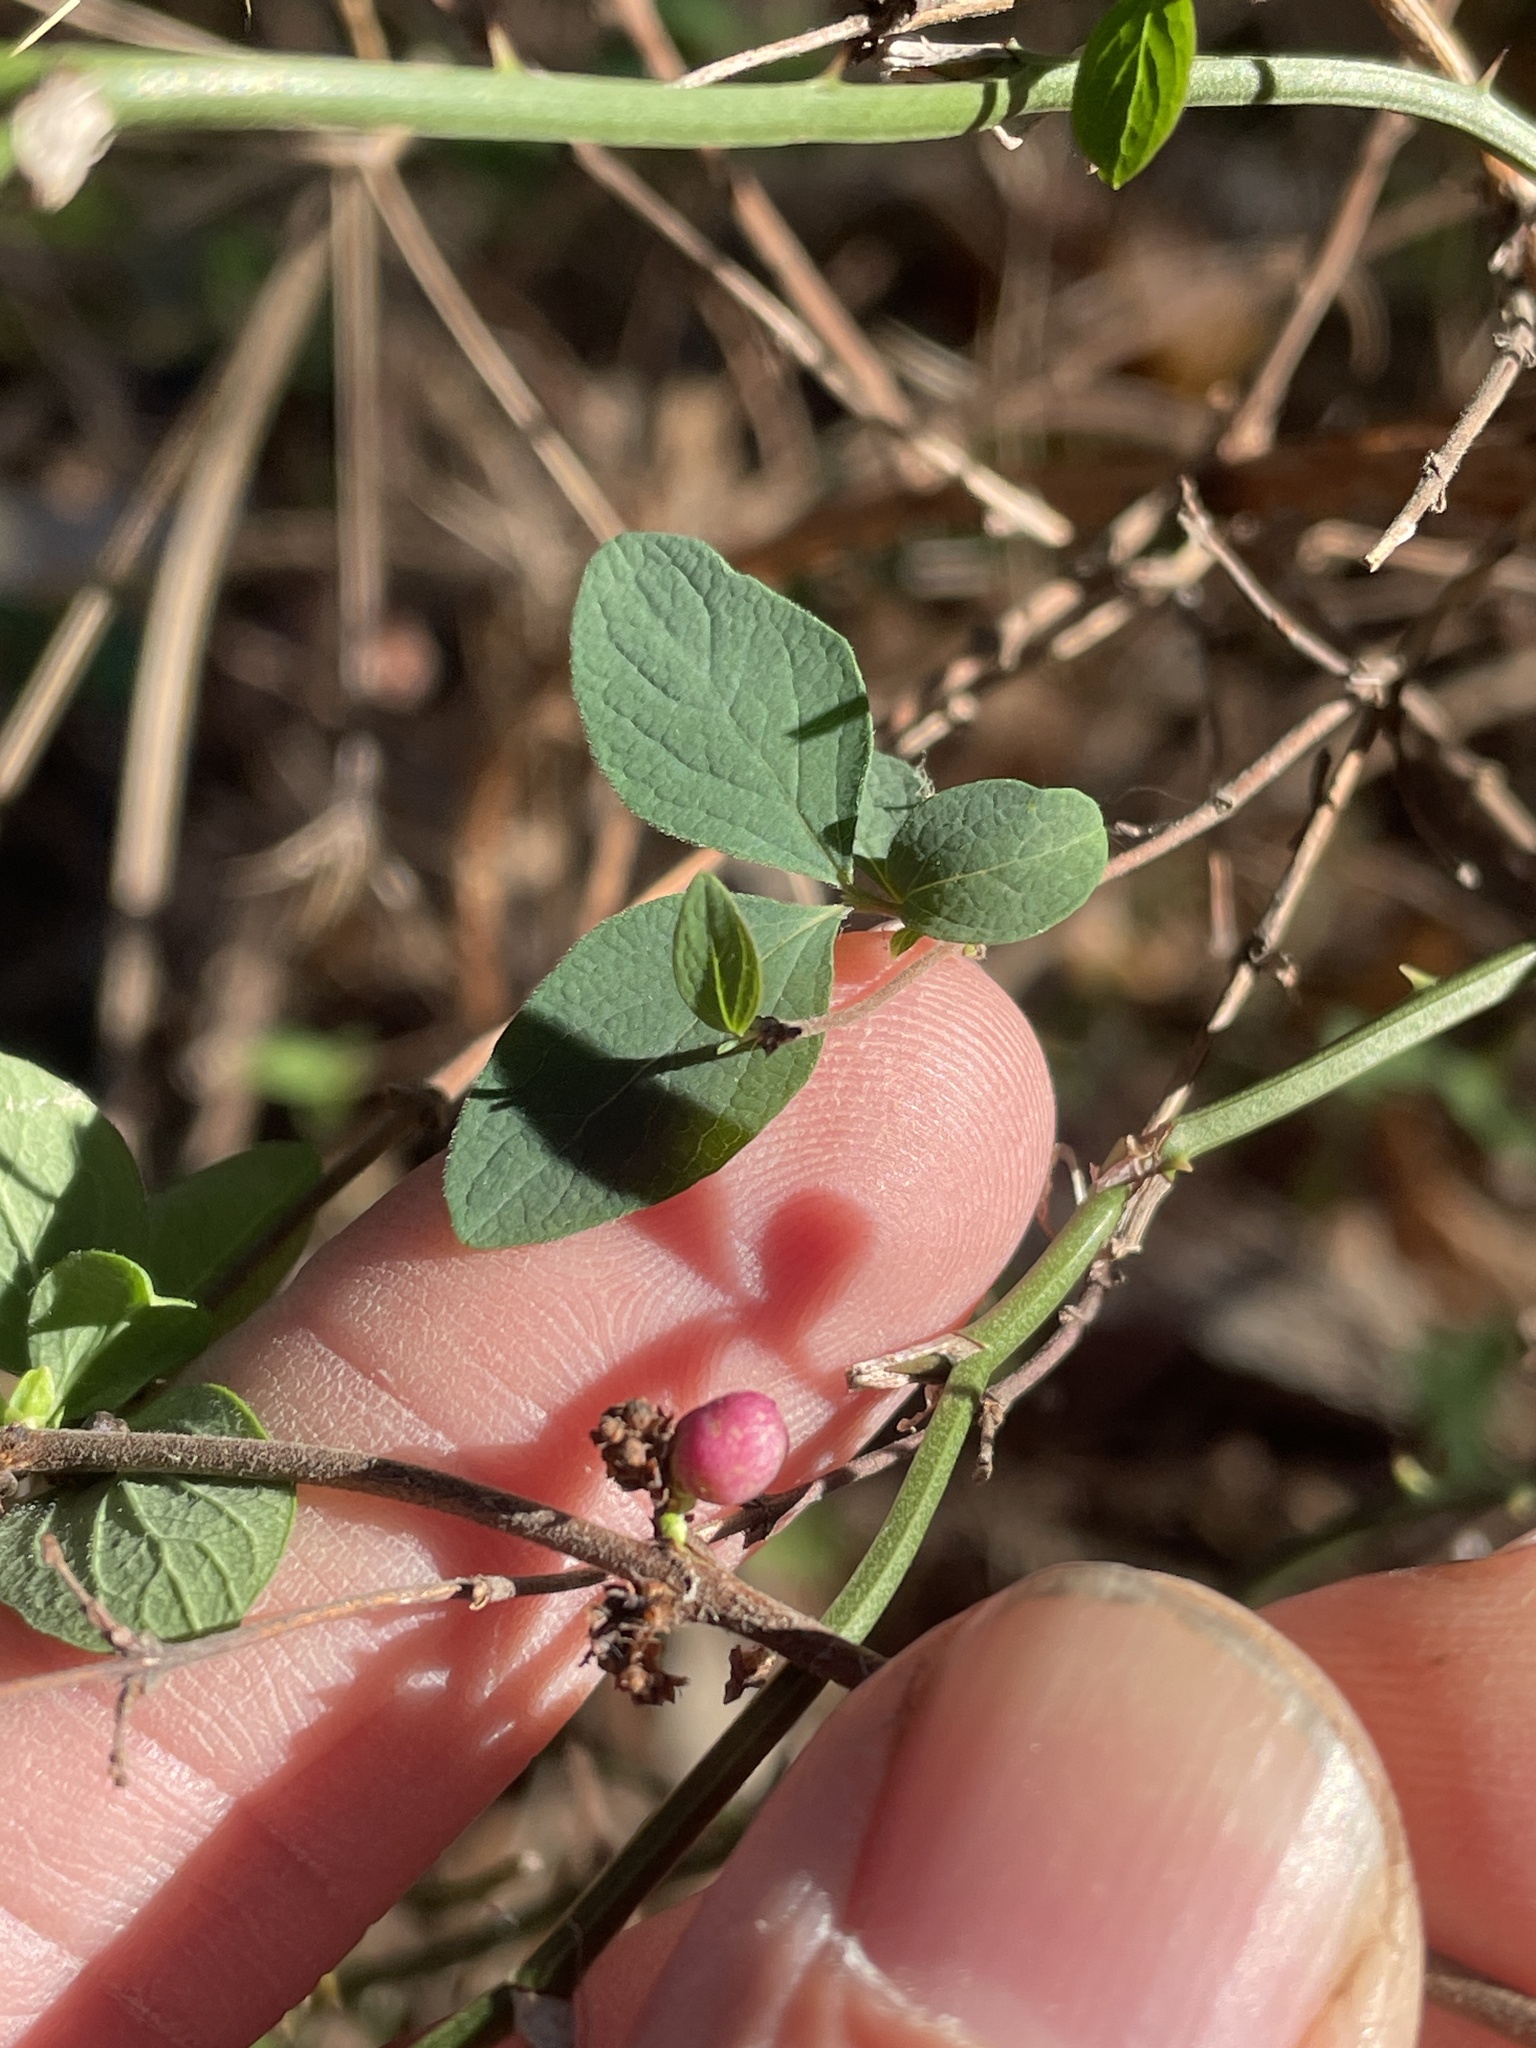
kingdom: Plantae
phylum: Tracheophyta
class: Magnoliopsida
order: Dipsacales
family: Caprifoliaceae
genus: Symphoricarpos
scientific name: Symphoricarpos orbiculatus
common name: Coralberry
